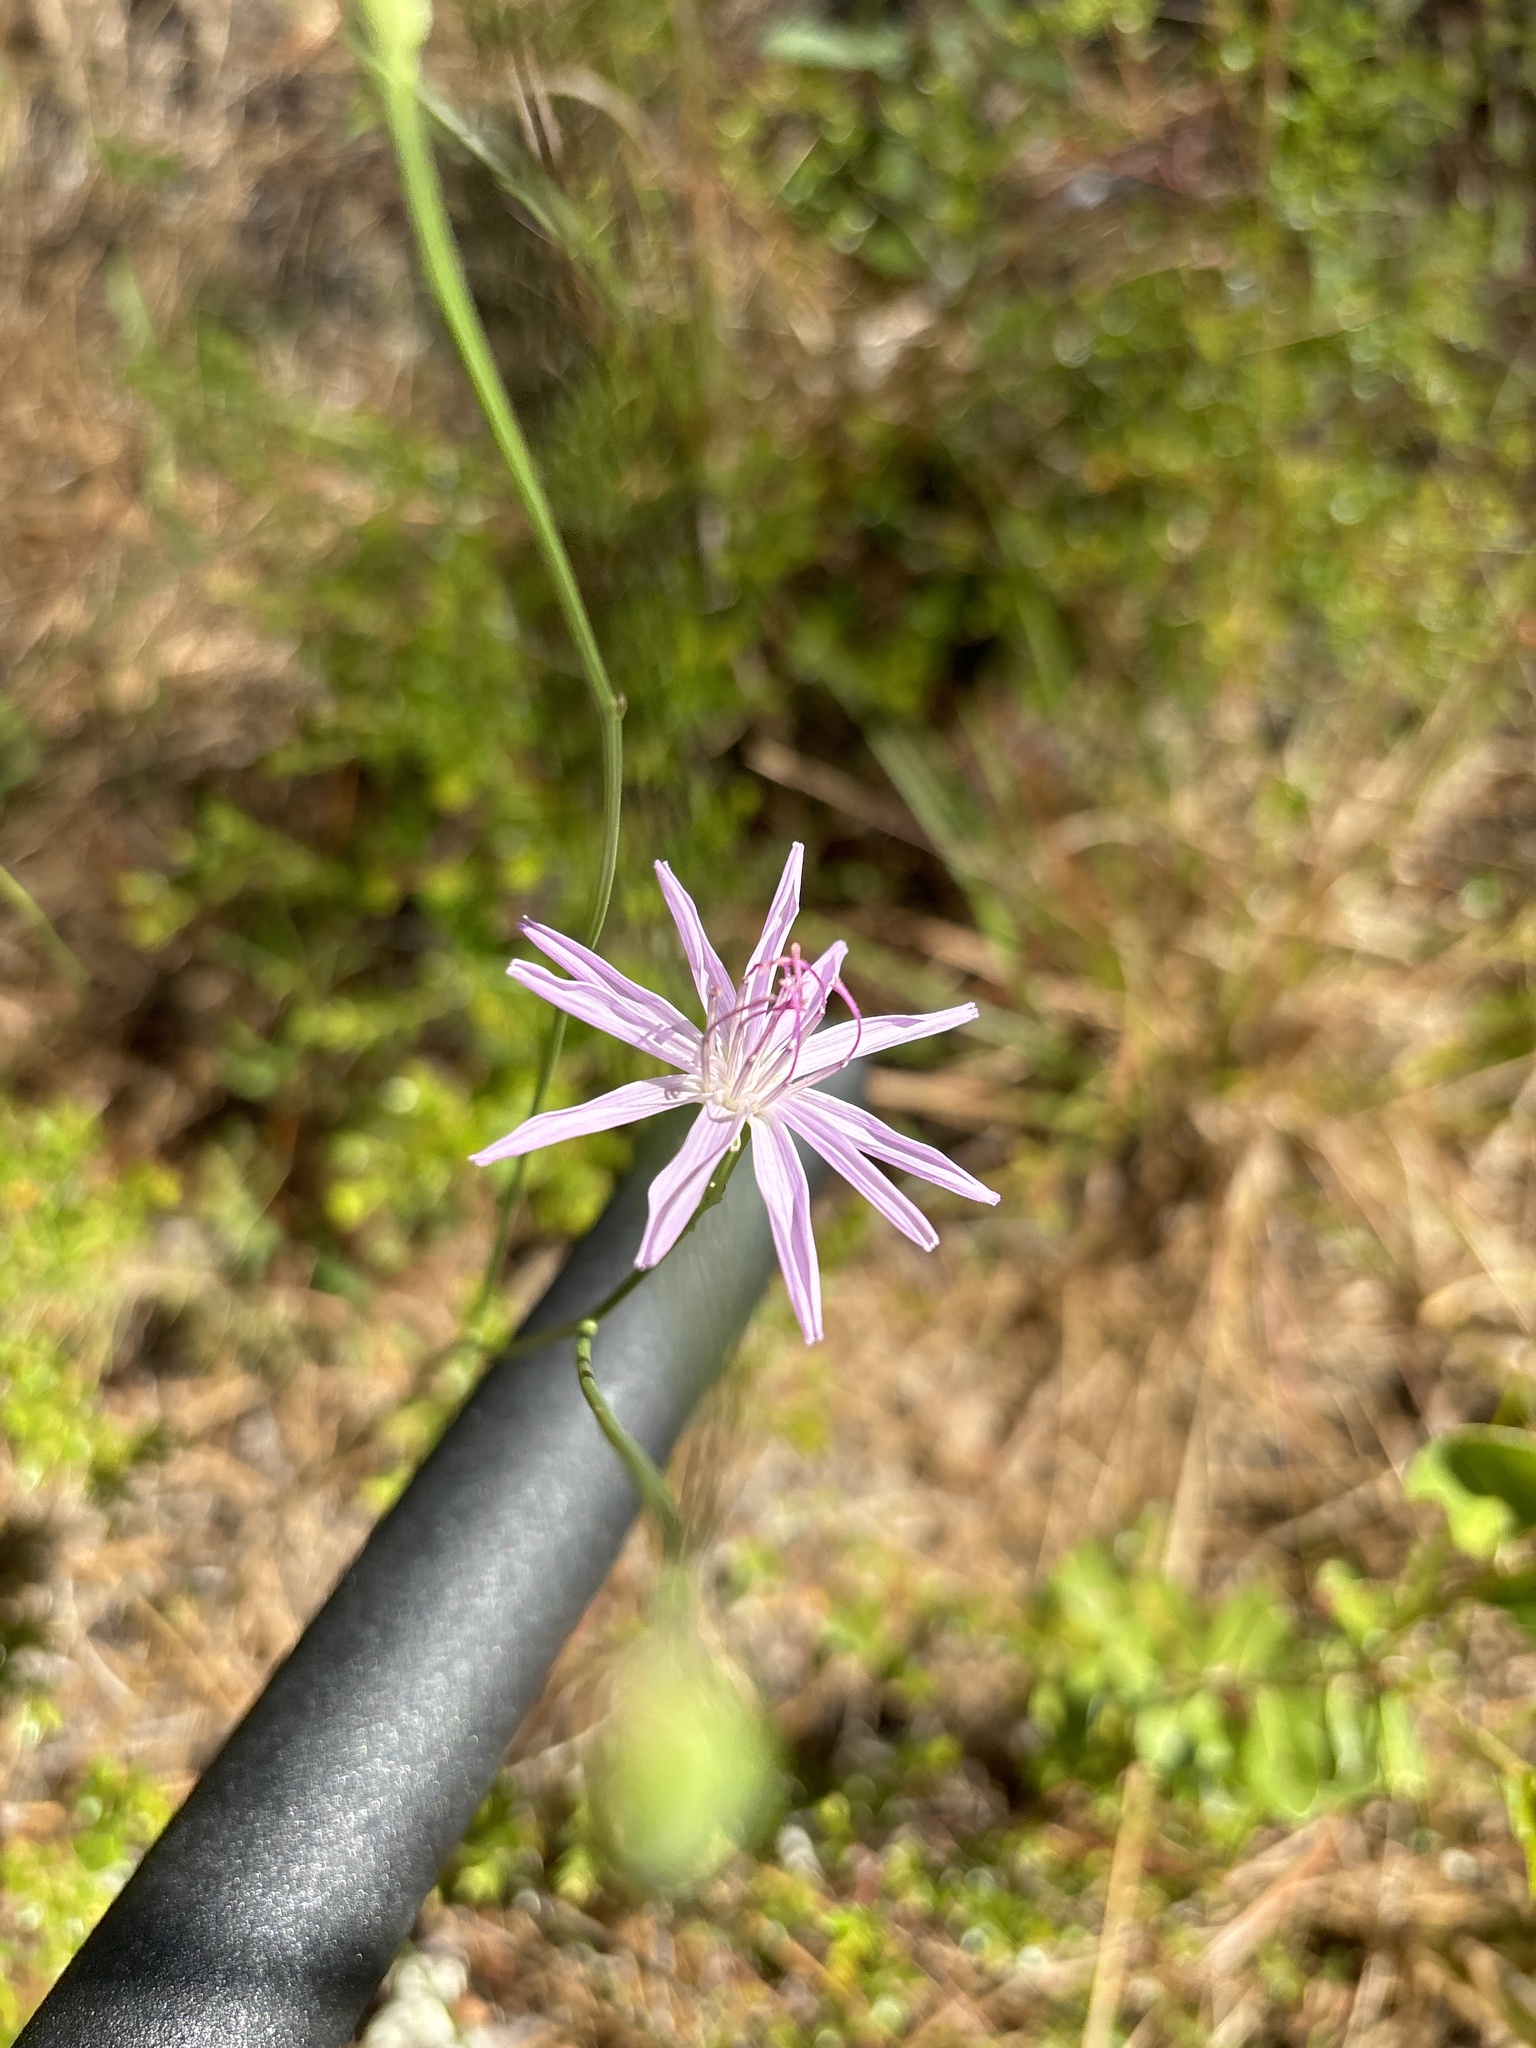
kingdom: Plantae
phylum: Tracheophyta
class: Magnoliopsida
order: Asterales
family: Asteraceae
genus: Lygodesmia
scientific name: Lygodesmia aphylla
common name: Rose-rush
